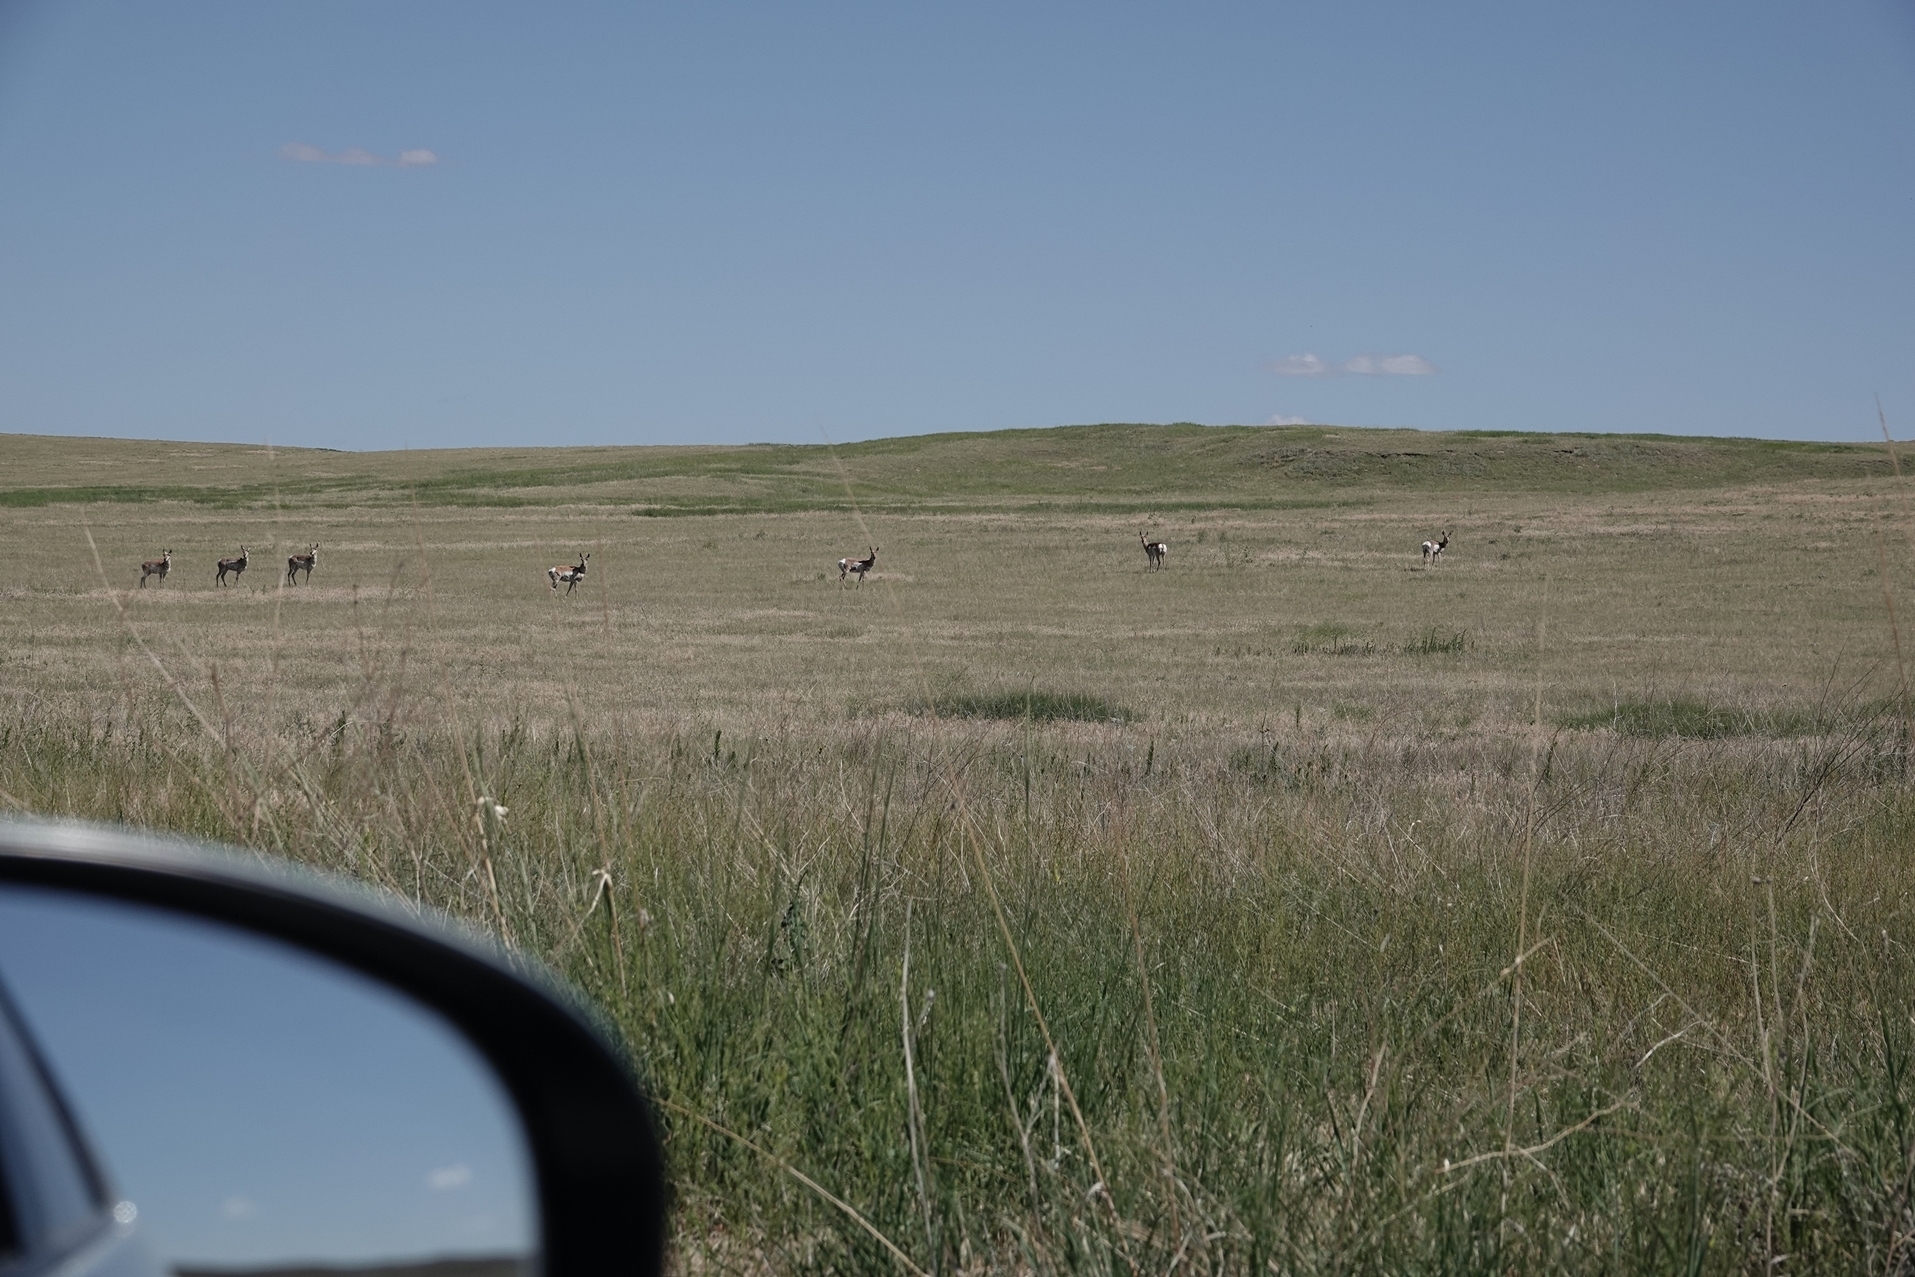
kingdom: Animalia
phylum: Chordata
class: Mammalia
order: Artiodactyla
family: Antilocapridae
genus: Antilocapra
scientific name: Antilocapra americana
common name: Pronghorn
